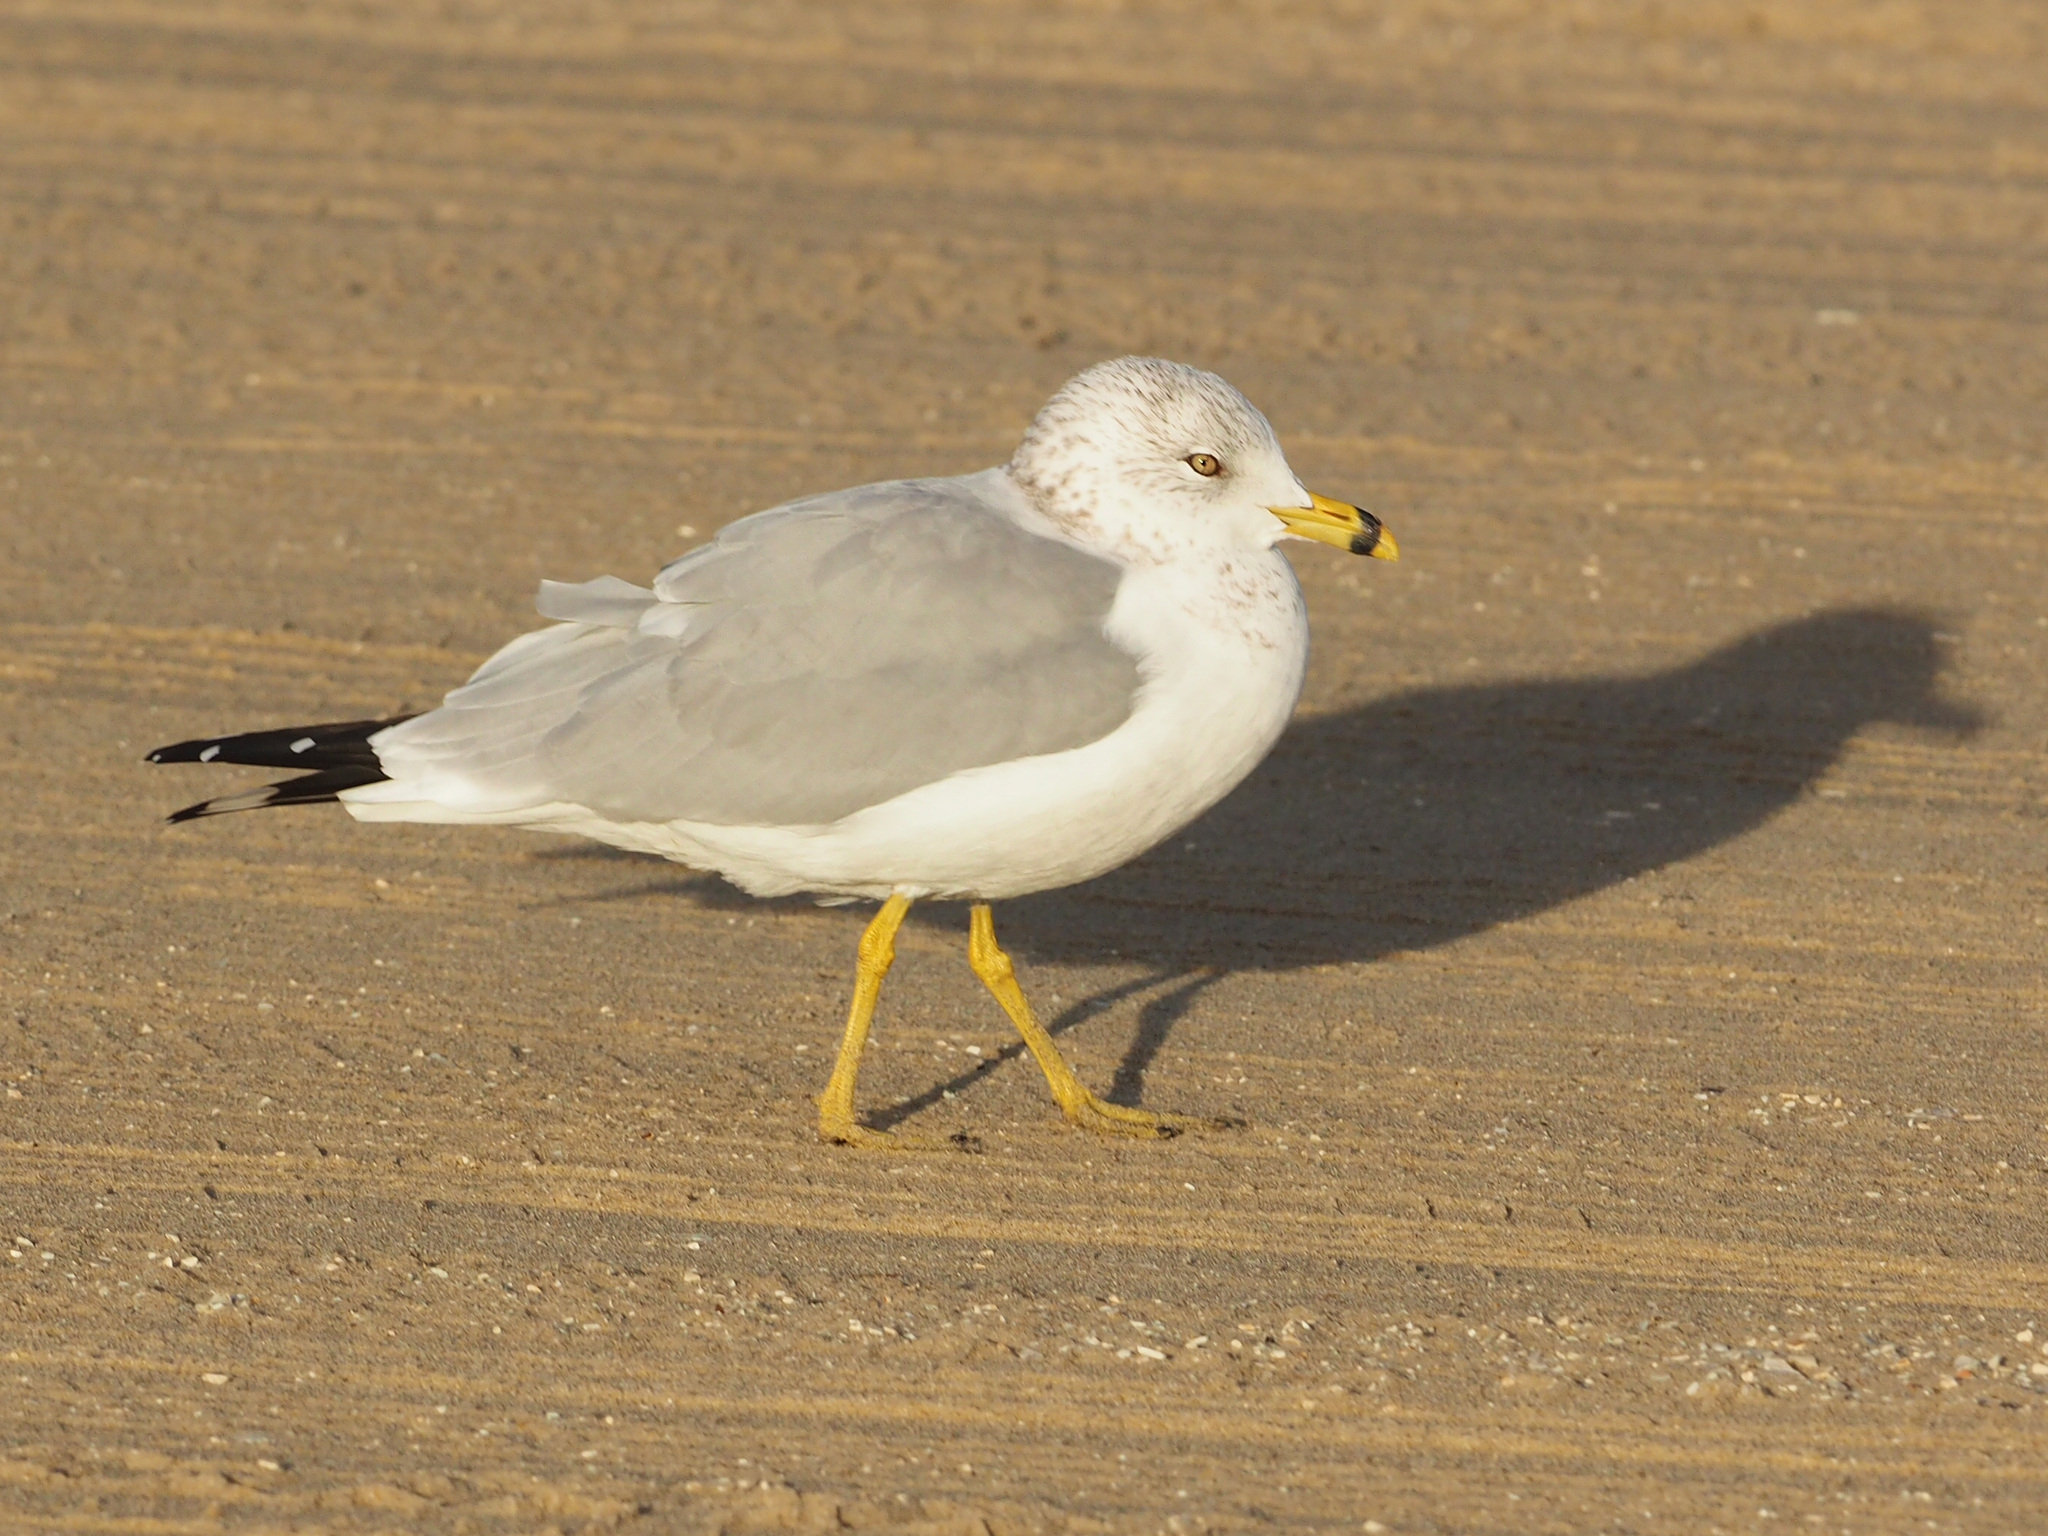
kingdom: Animalia
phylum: Chordata
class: Aves
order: Charadriiformes
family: Laridae
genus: Larus
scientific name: Larus delawarensis
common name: Ring-billed gull
